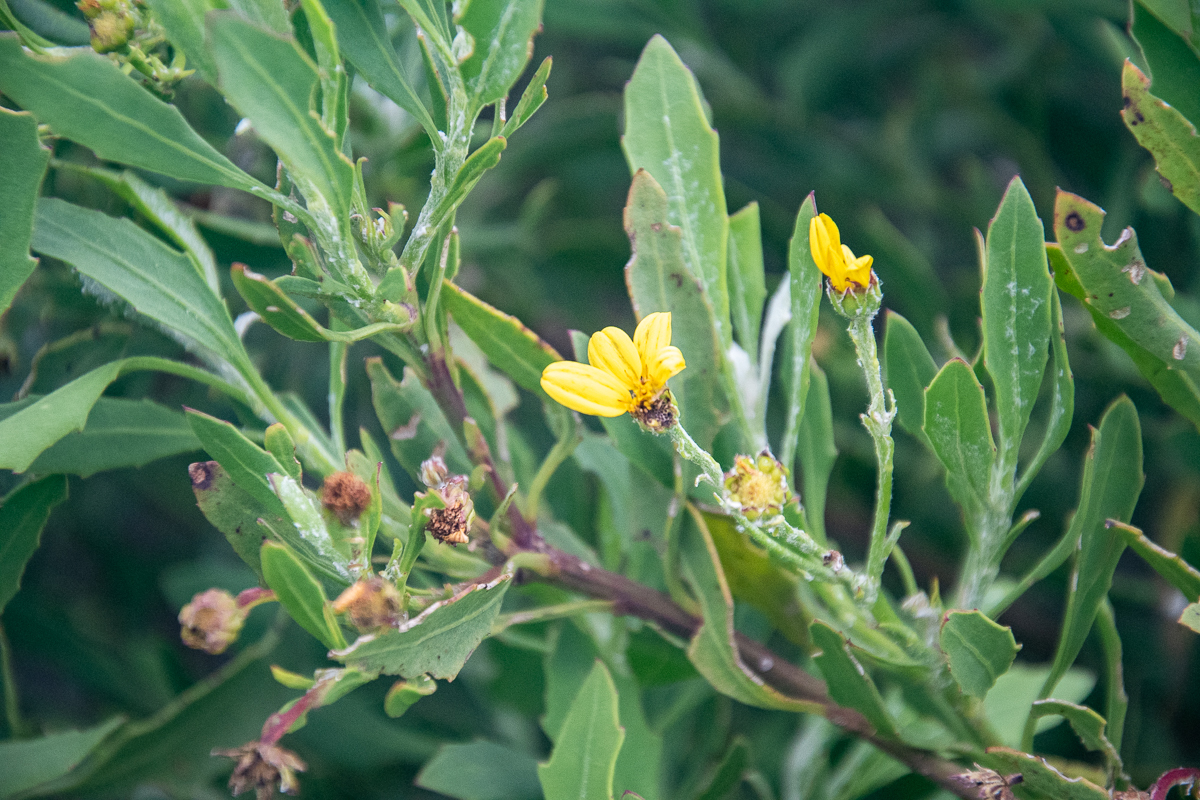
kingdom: Plantae
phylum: Tracheophyta
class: Magnoliopsida
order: Asterales
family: Asteraceae
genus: Osteospermum
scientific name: Osteospermum moniliferum
